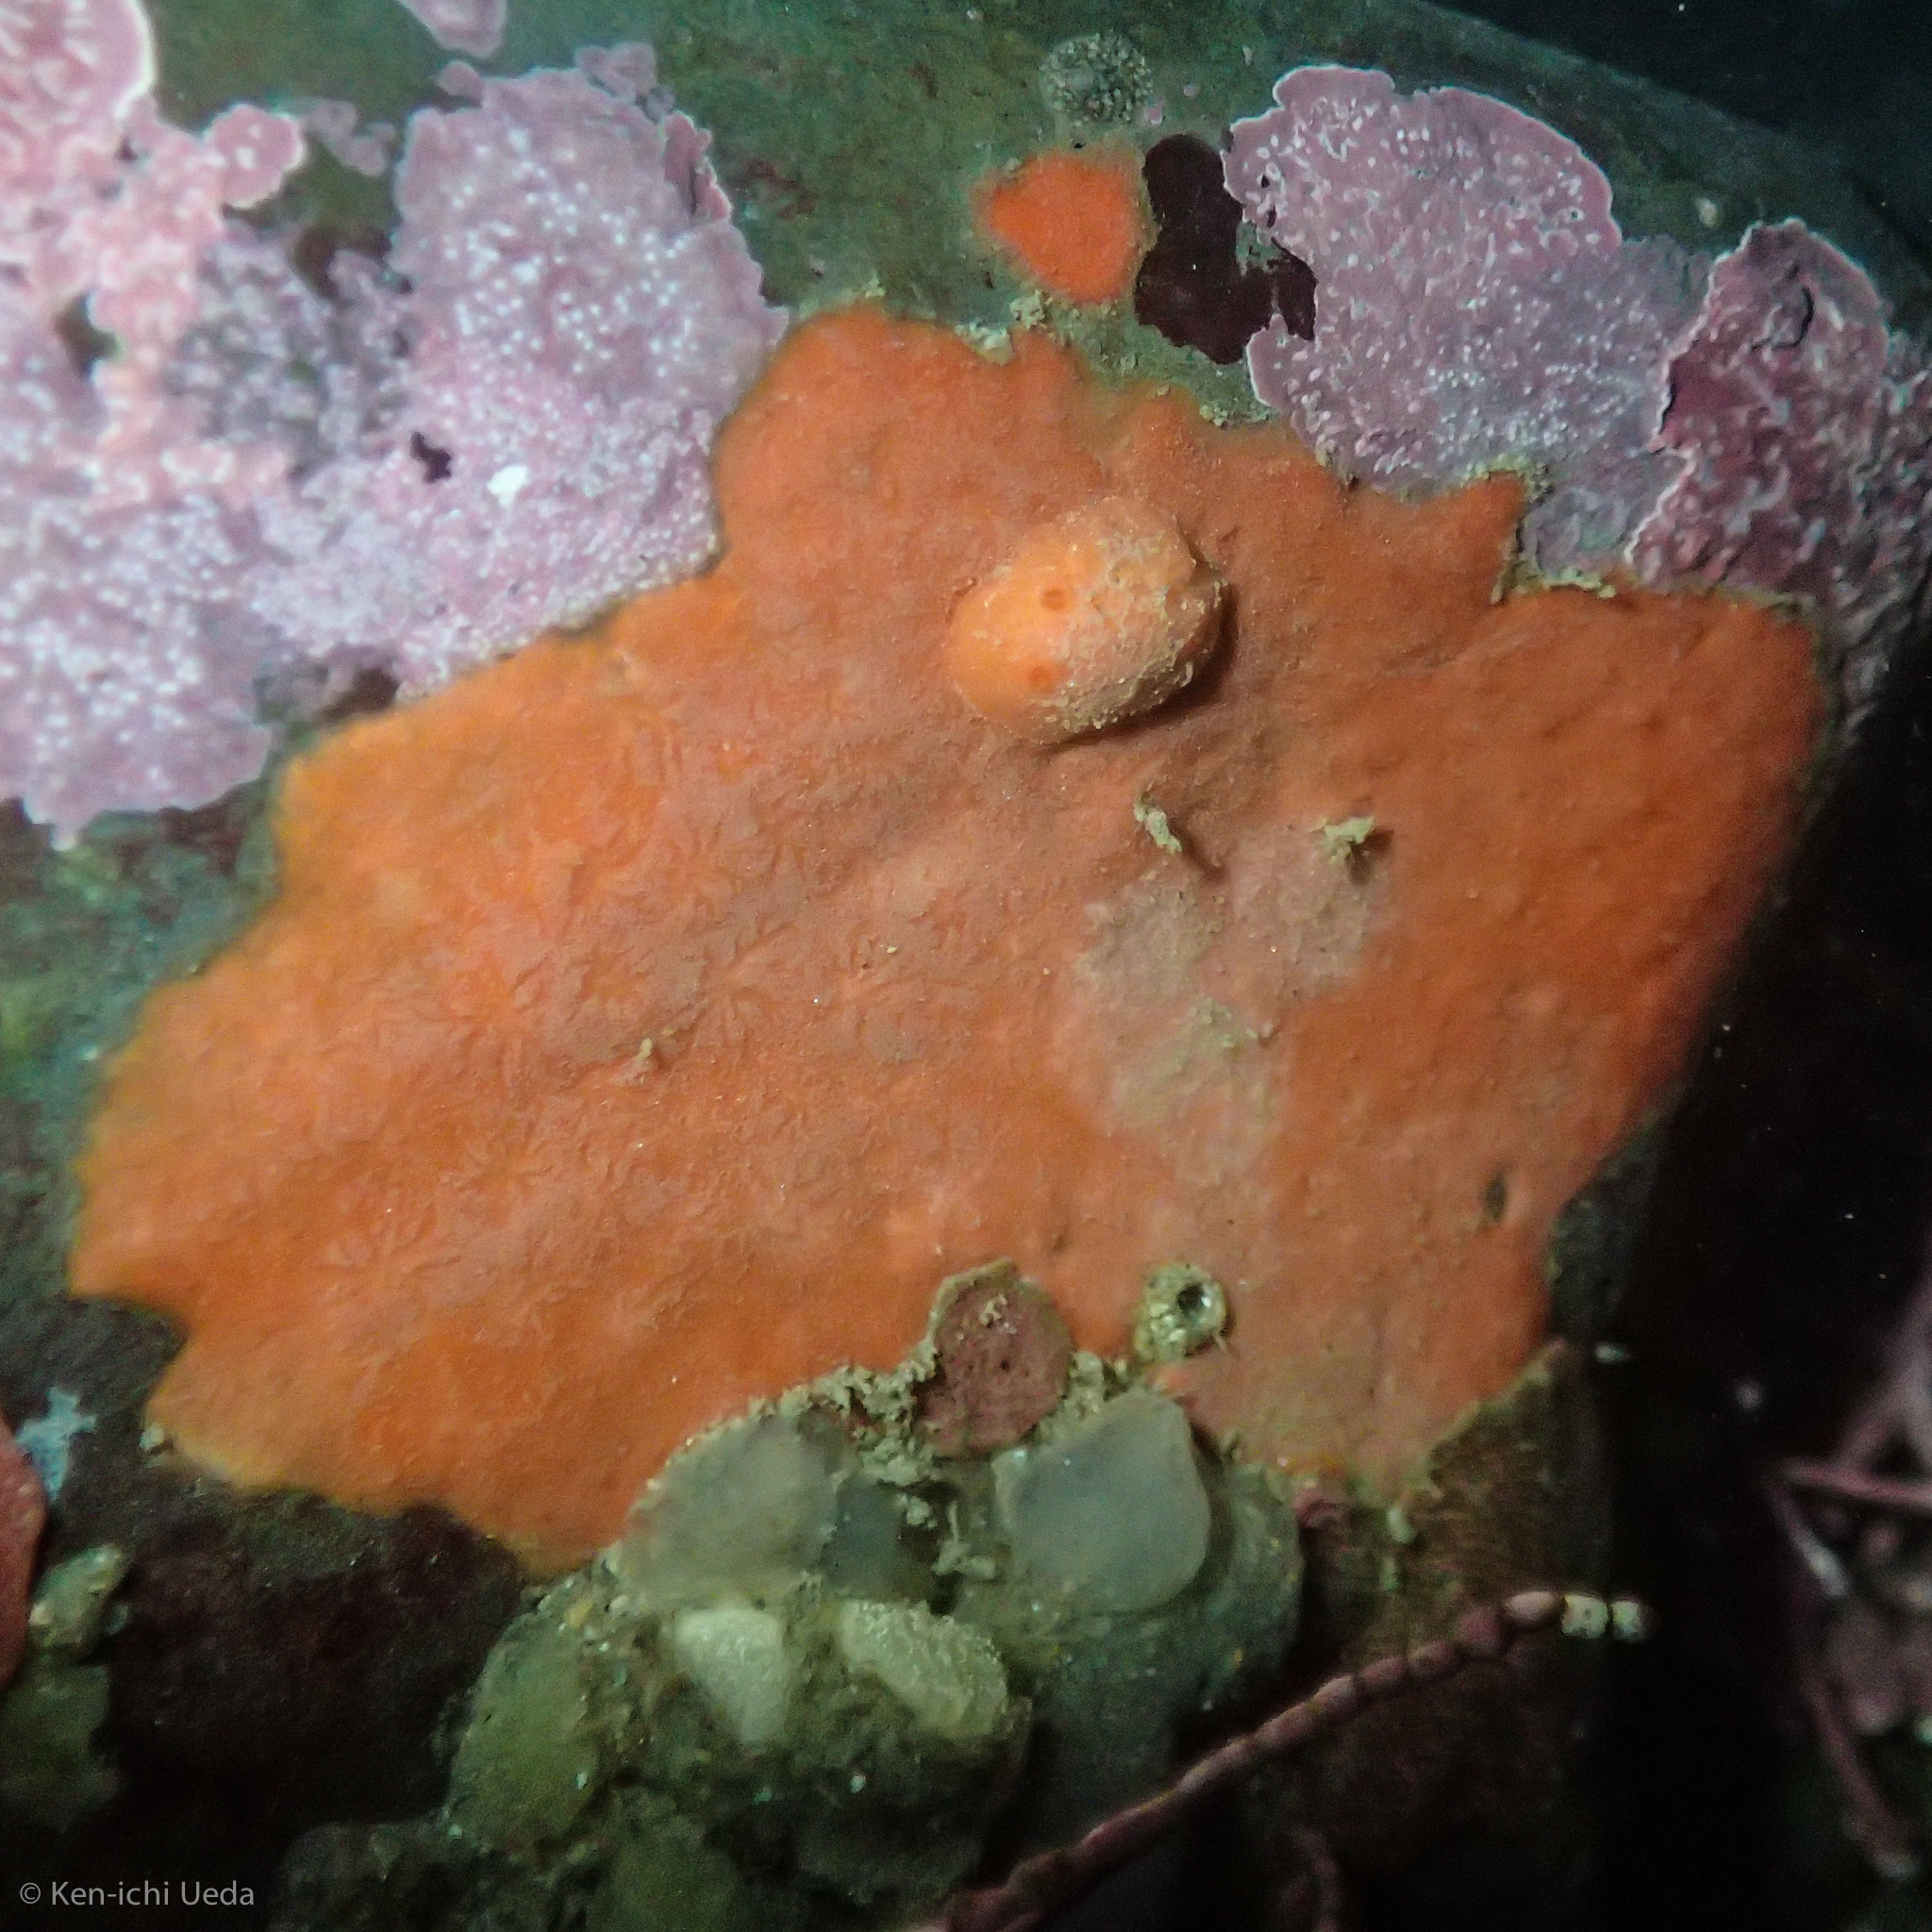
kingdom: Animalia
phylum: Mollusca
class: Gastropoda
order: Nudibranchia
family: Discodorididae
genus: Rostanga
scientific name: Rostanga pulchra
